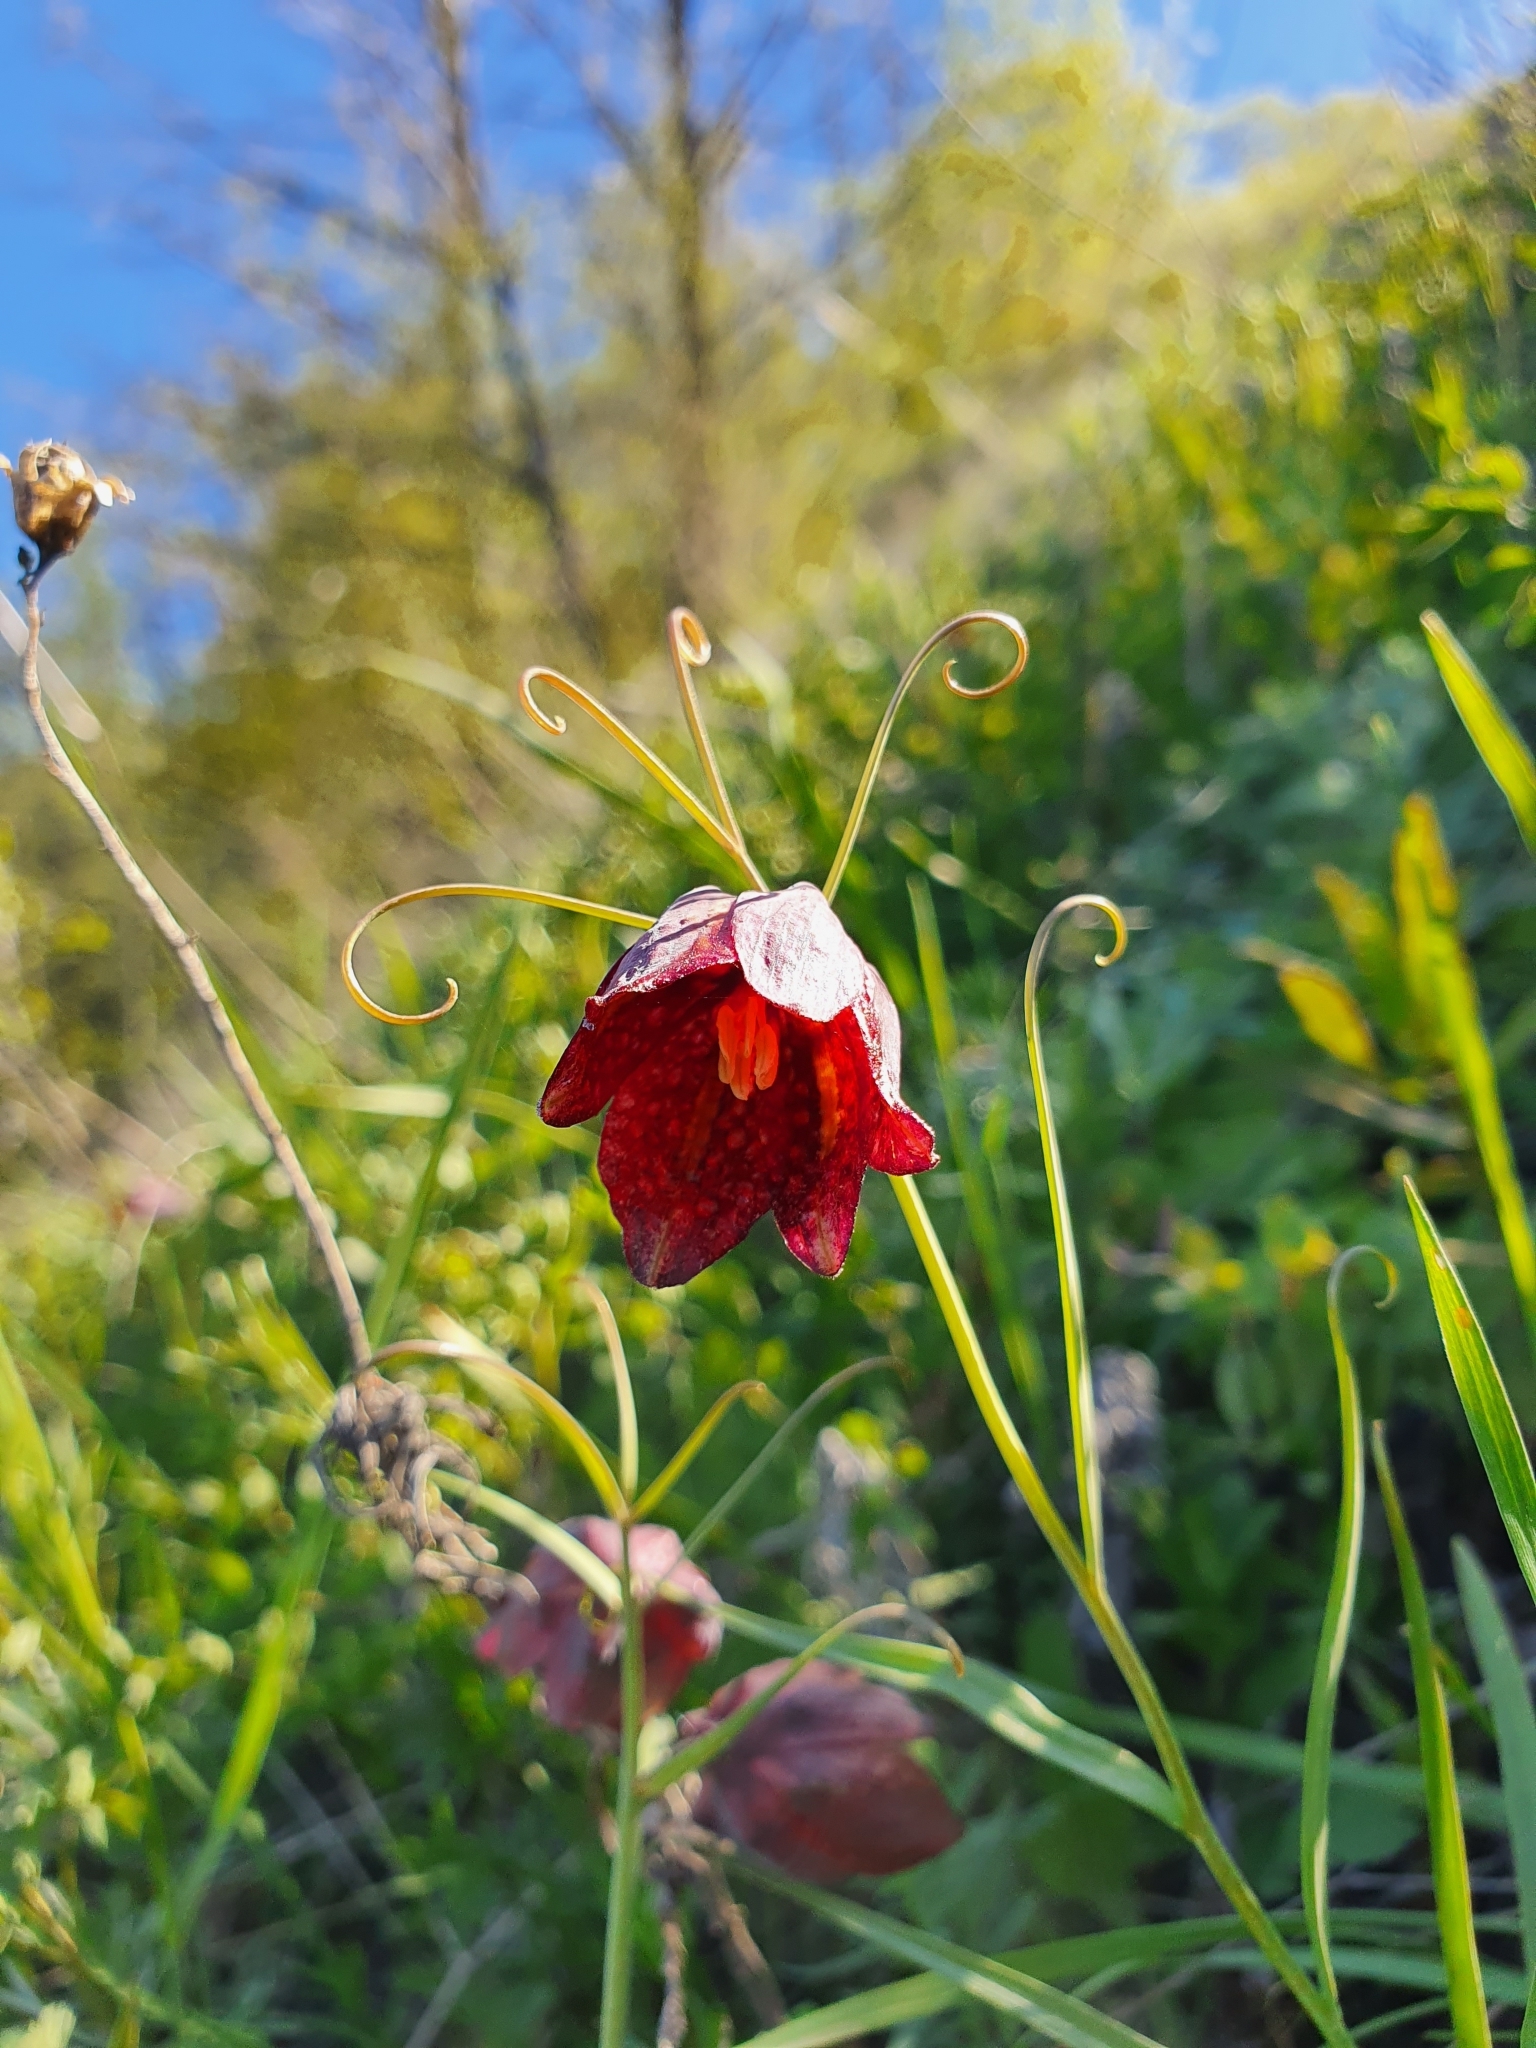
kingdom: Plantae
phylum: Tracheophyta
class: Liliopsida
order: Liliales
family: Liliaceae
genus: Fritillaria
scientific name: Fritillaria ruthenica
